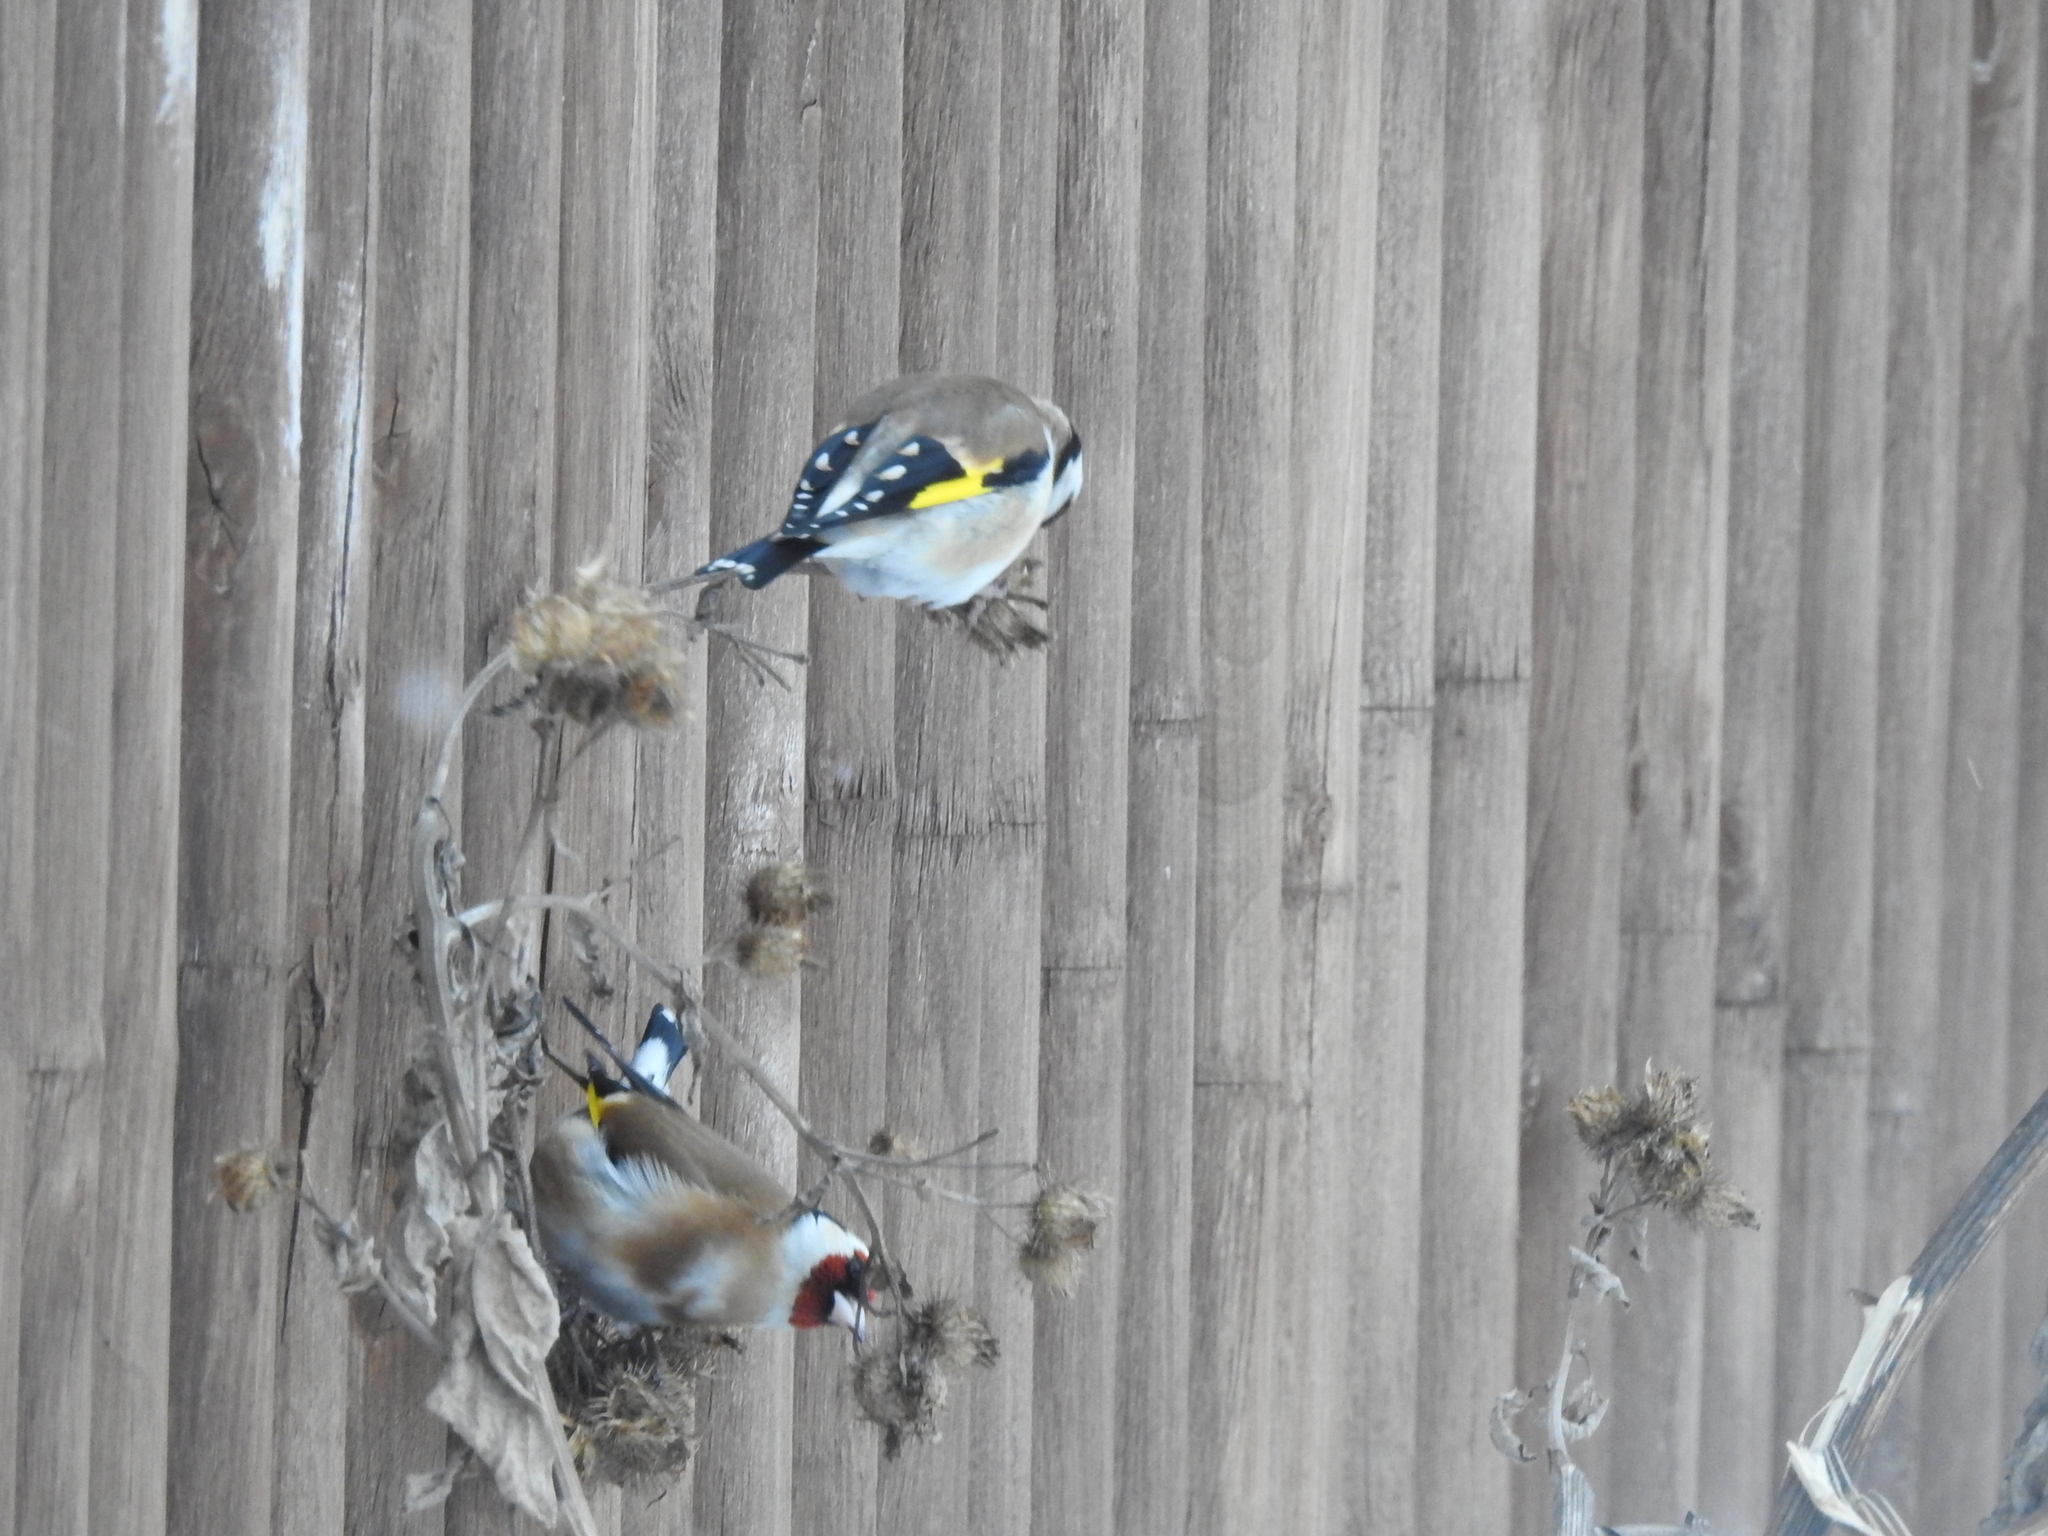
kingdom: Animalia
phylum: Chordata
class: Aves
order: Passeriformes
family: Fringillidae
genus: Carduelis
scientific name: Carduelis carduelis
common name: European goldfinch
